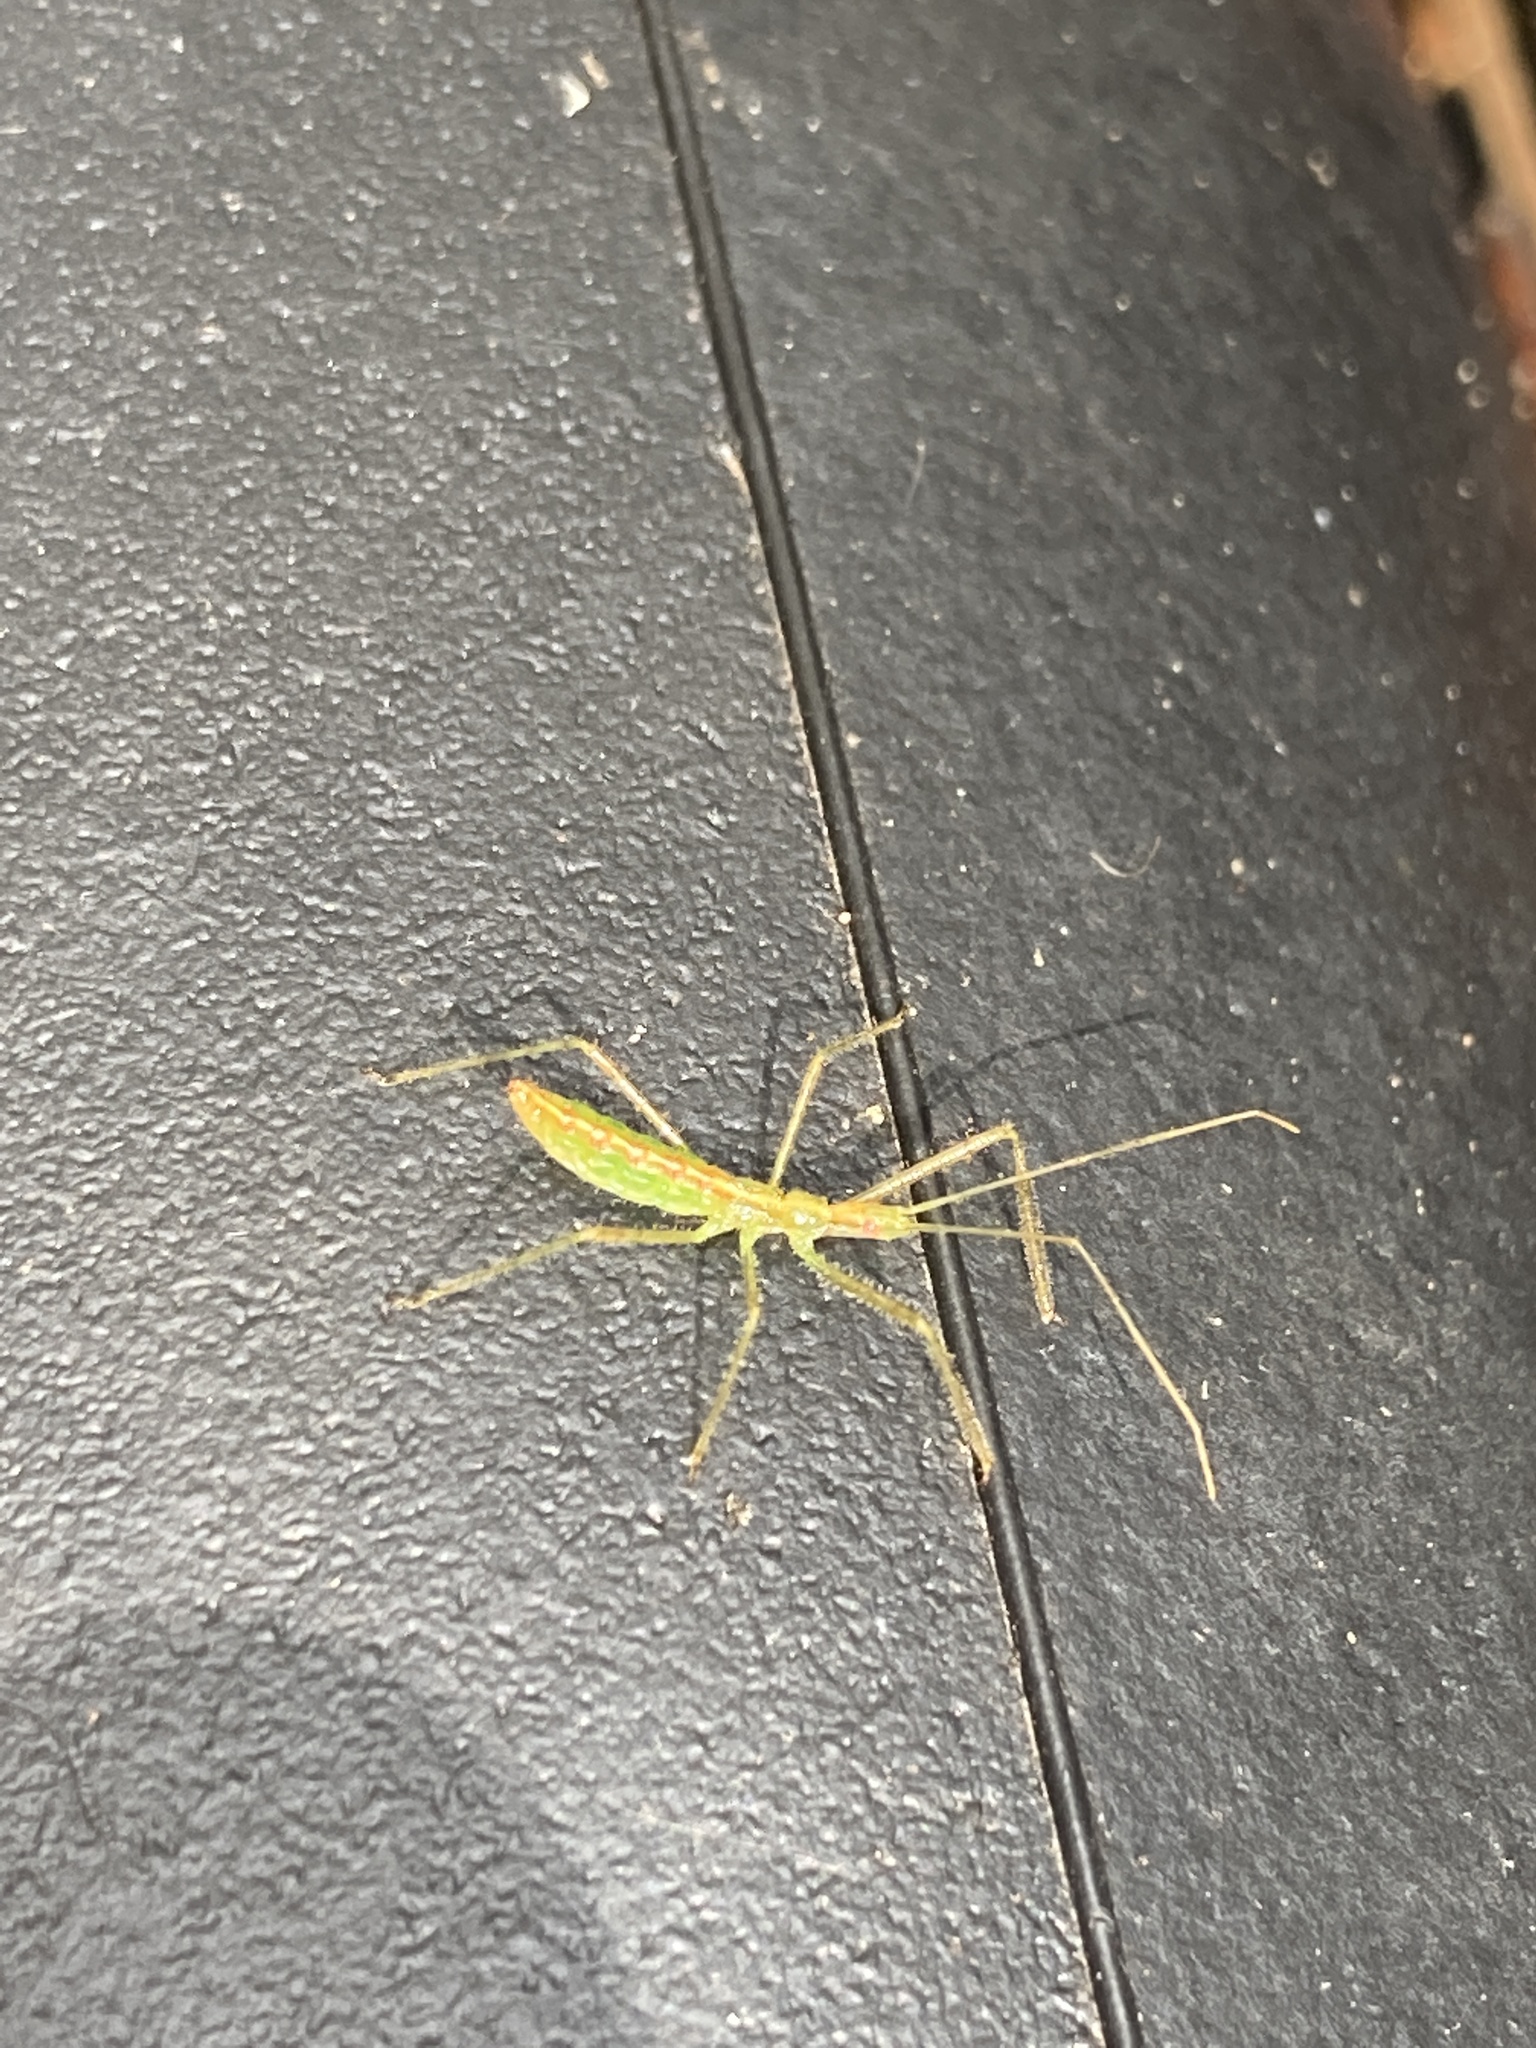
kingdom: Animalia
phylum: Arthropoda
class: Insecta
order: Hemiptera
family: Reduviidae
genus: Zelus
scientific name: Zelus luridus
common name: Pale green assassin bug
